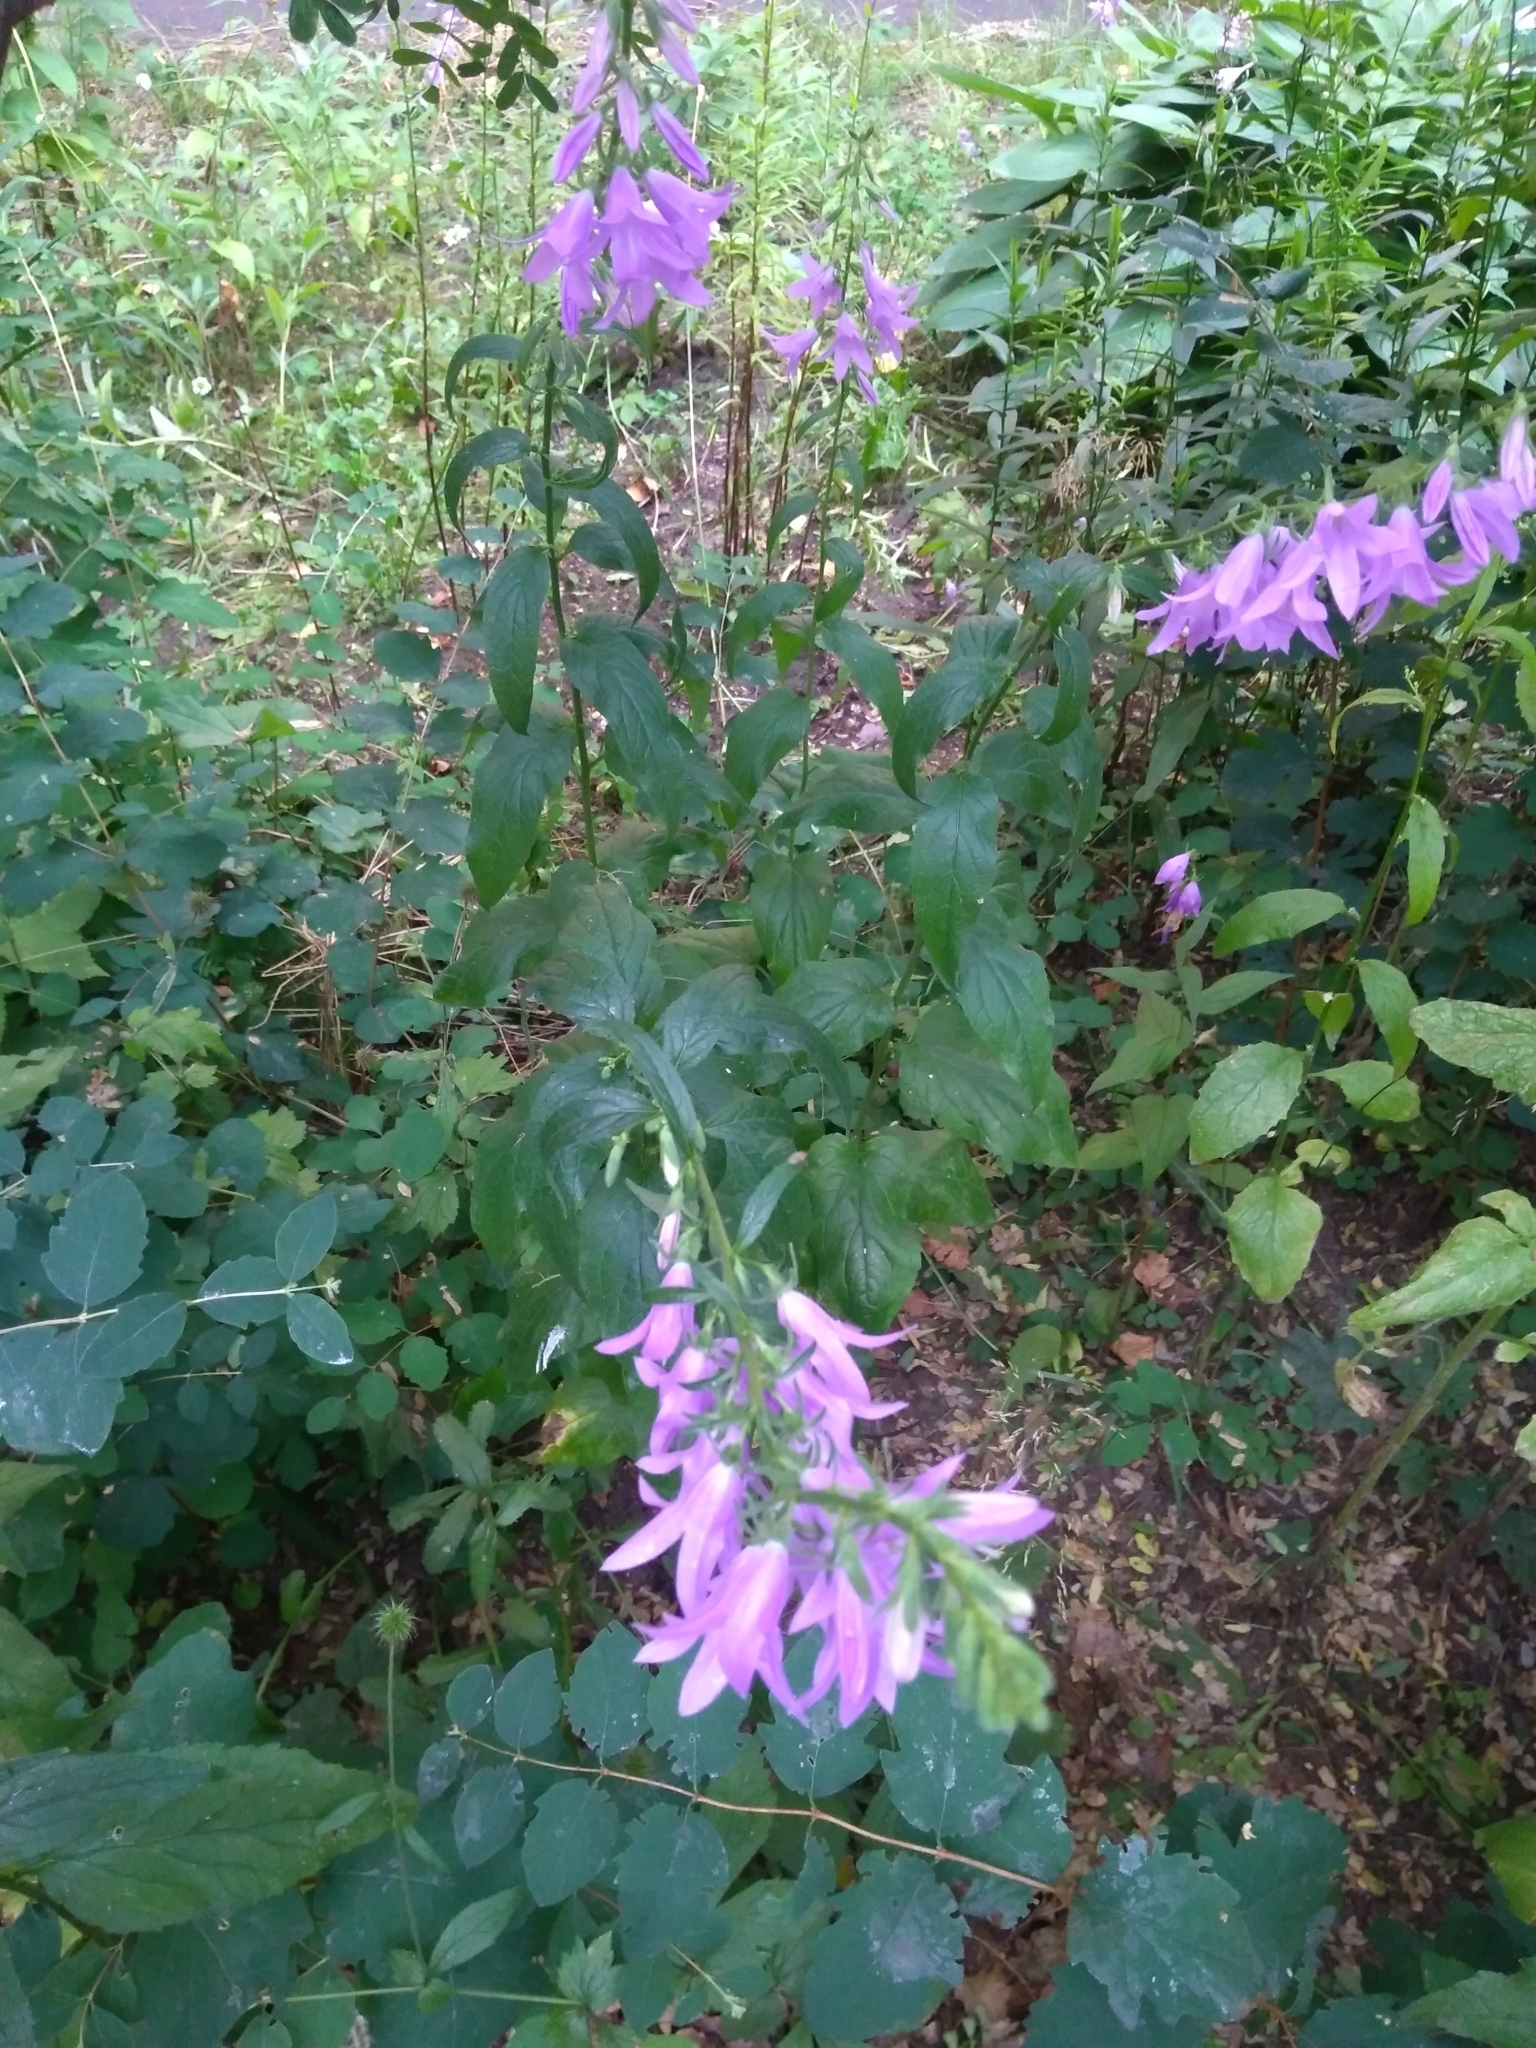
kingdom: Plantae
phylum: Tracheophyta
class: Magnoliopsida
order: Asterales
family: Campanulaceae
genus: Campanula
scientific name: Campanula rapunculoides
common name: Creeping bellflower
